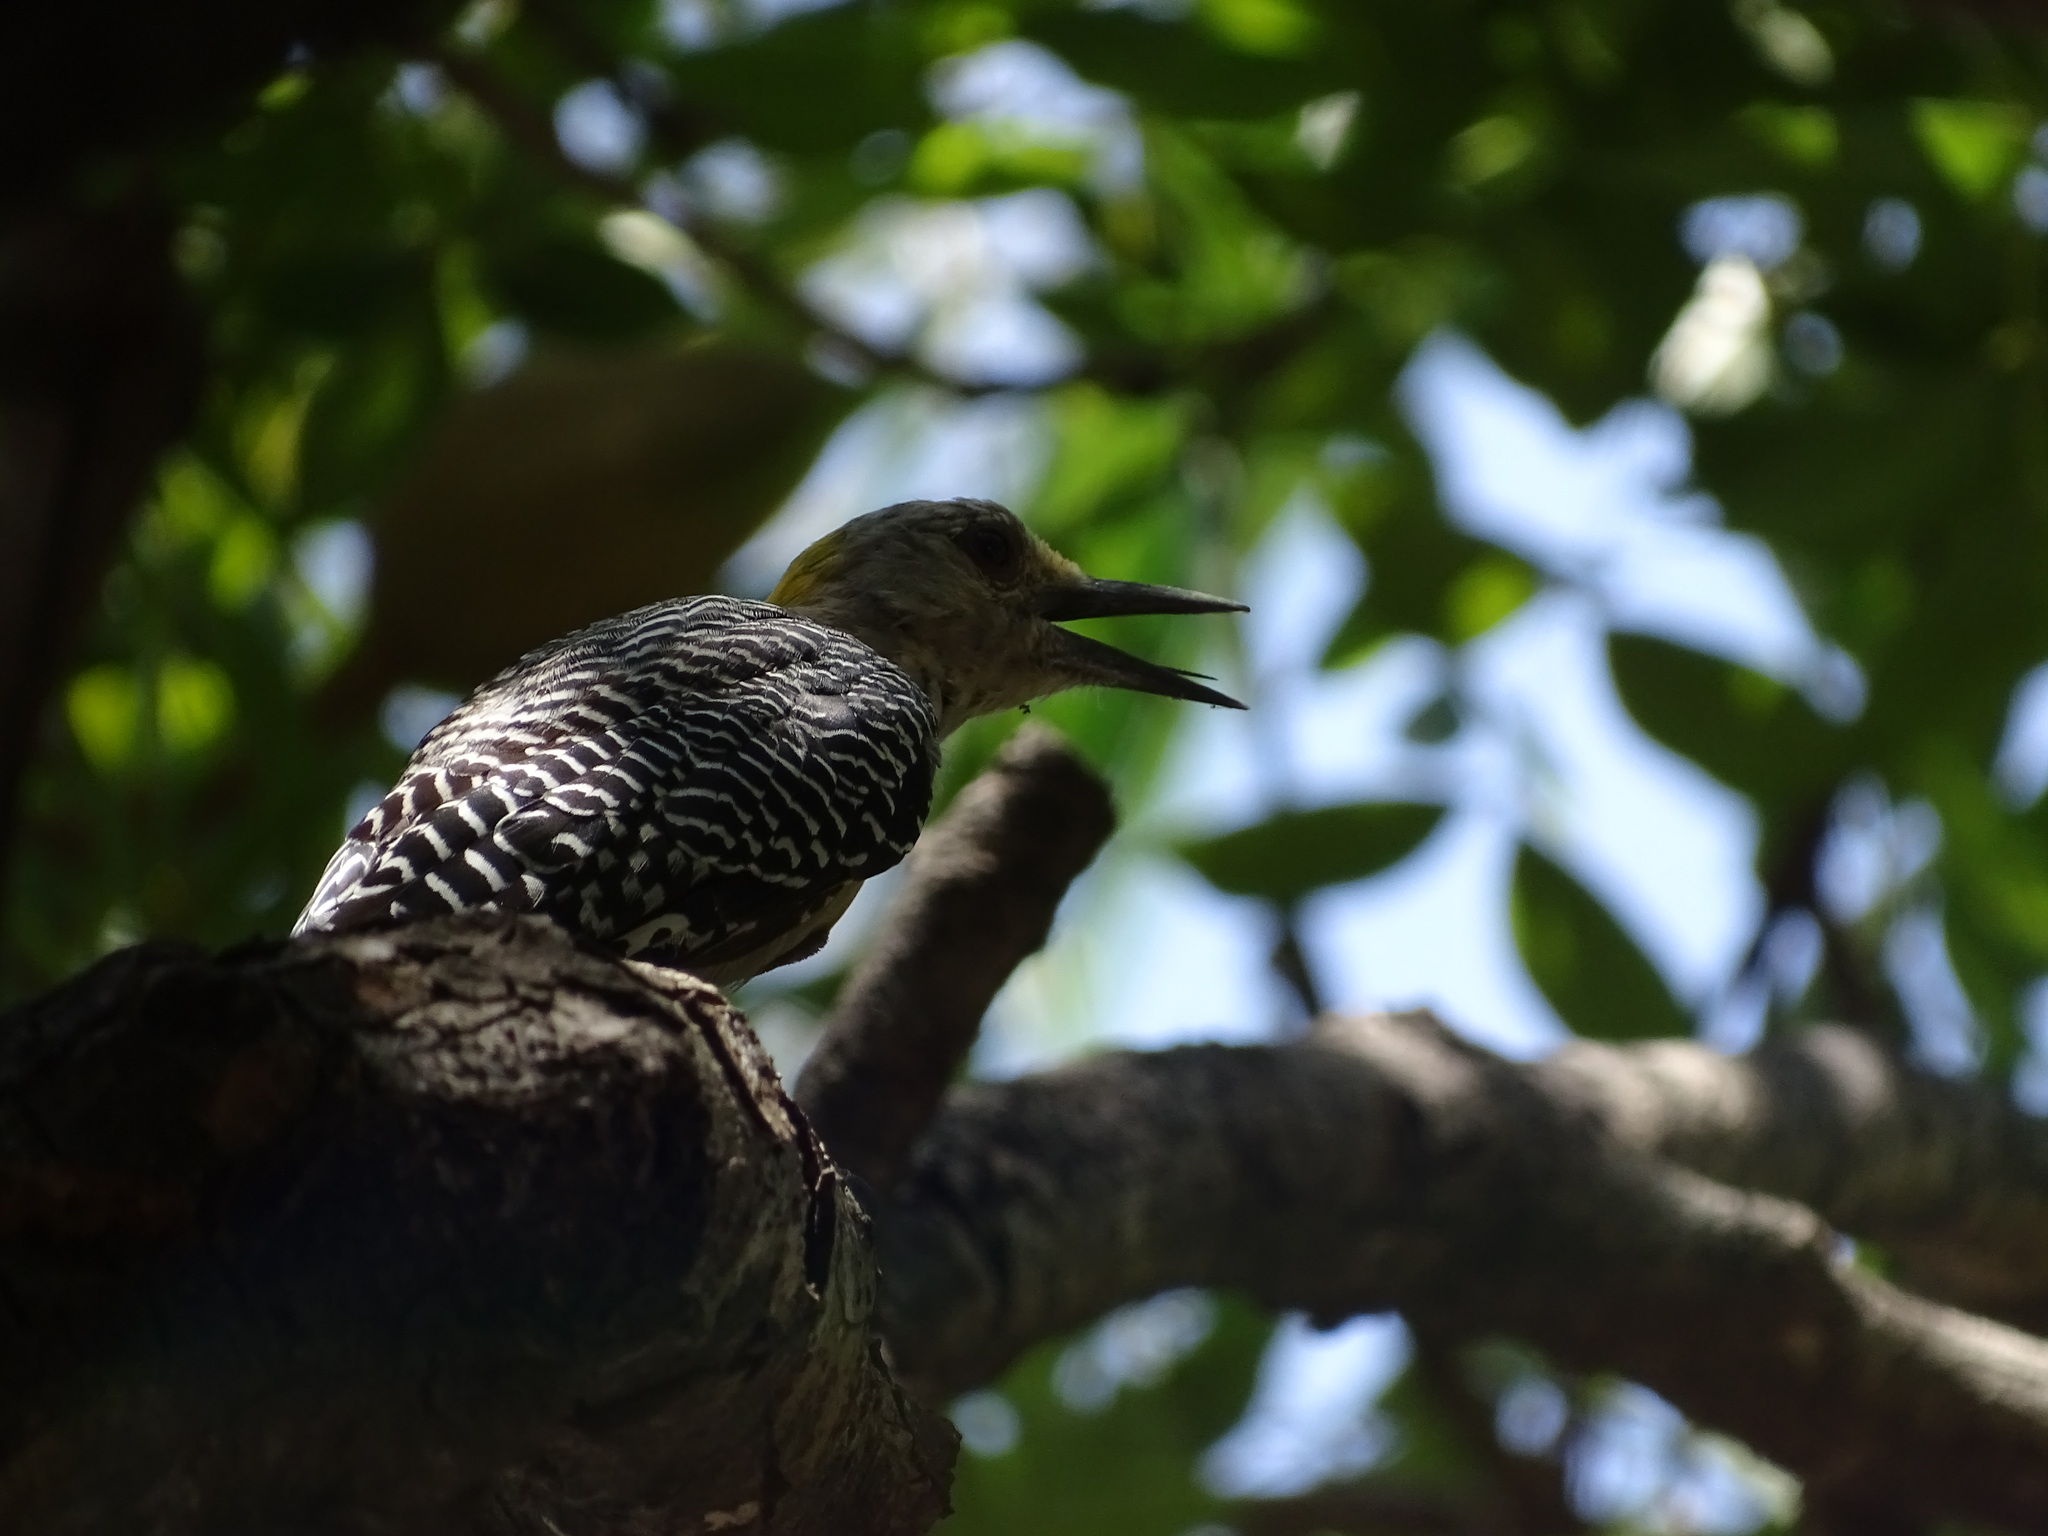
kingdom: Animalia
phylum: Chordata
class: Aves
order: Piciformes
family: Picidae
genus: Melanerpes
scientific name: Melanerpes aurifrons
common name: Golden-fronted woodpecker
